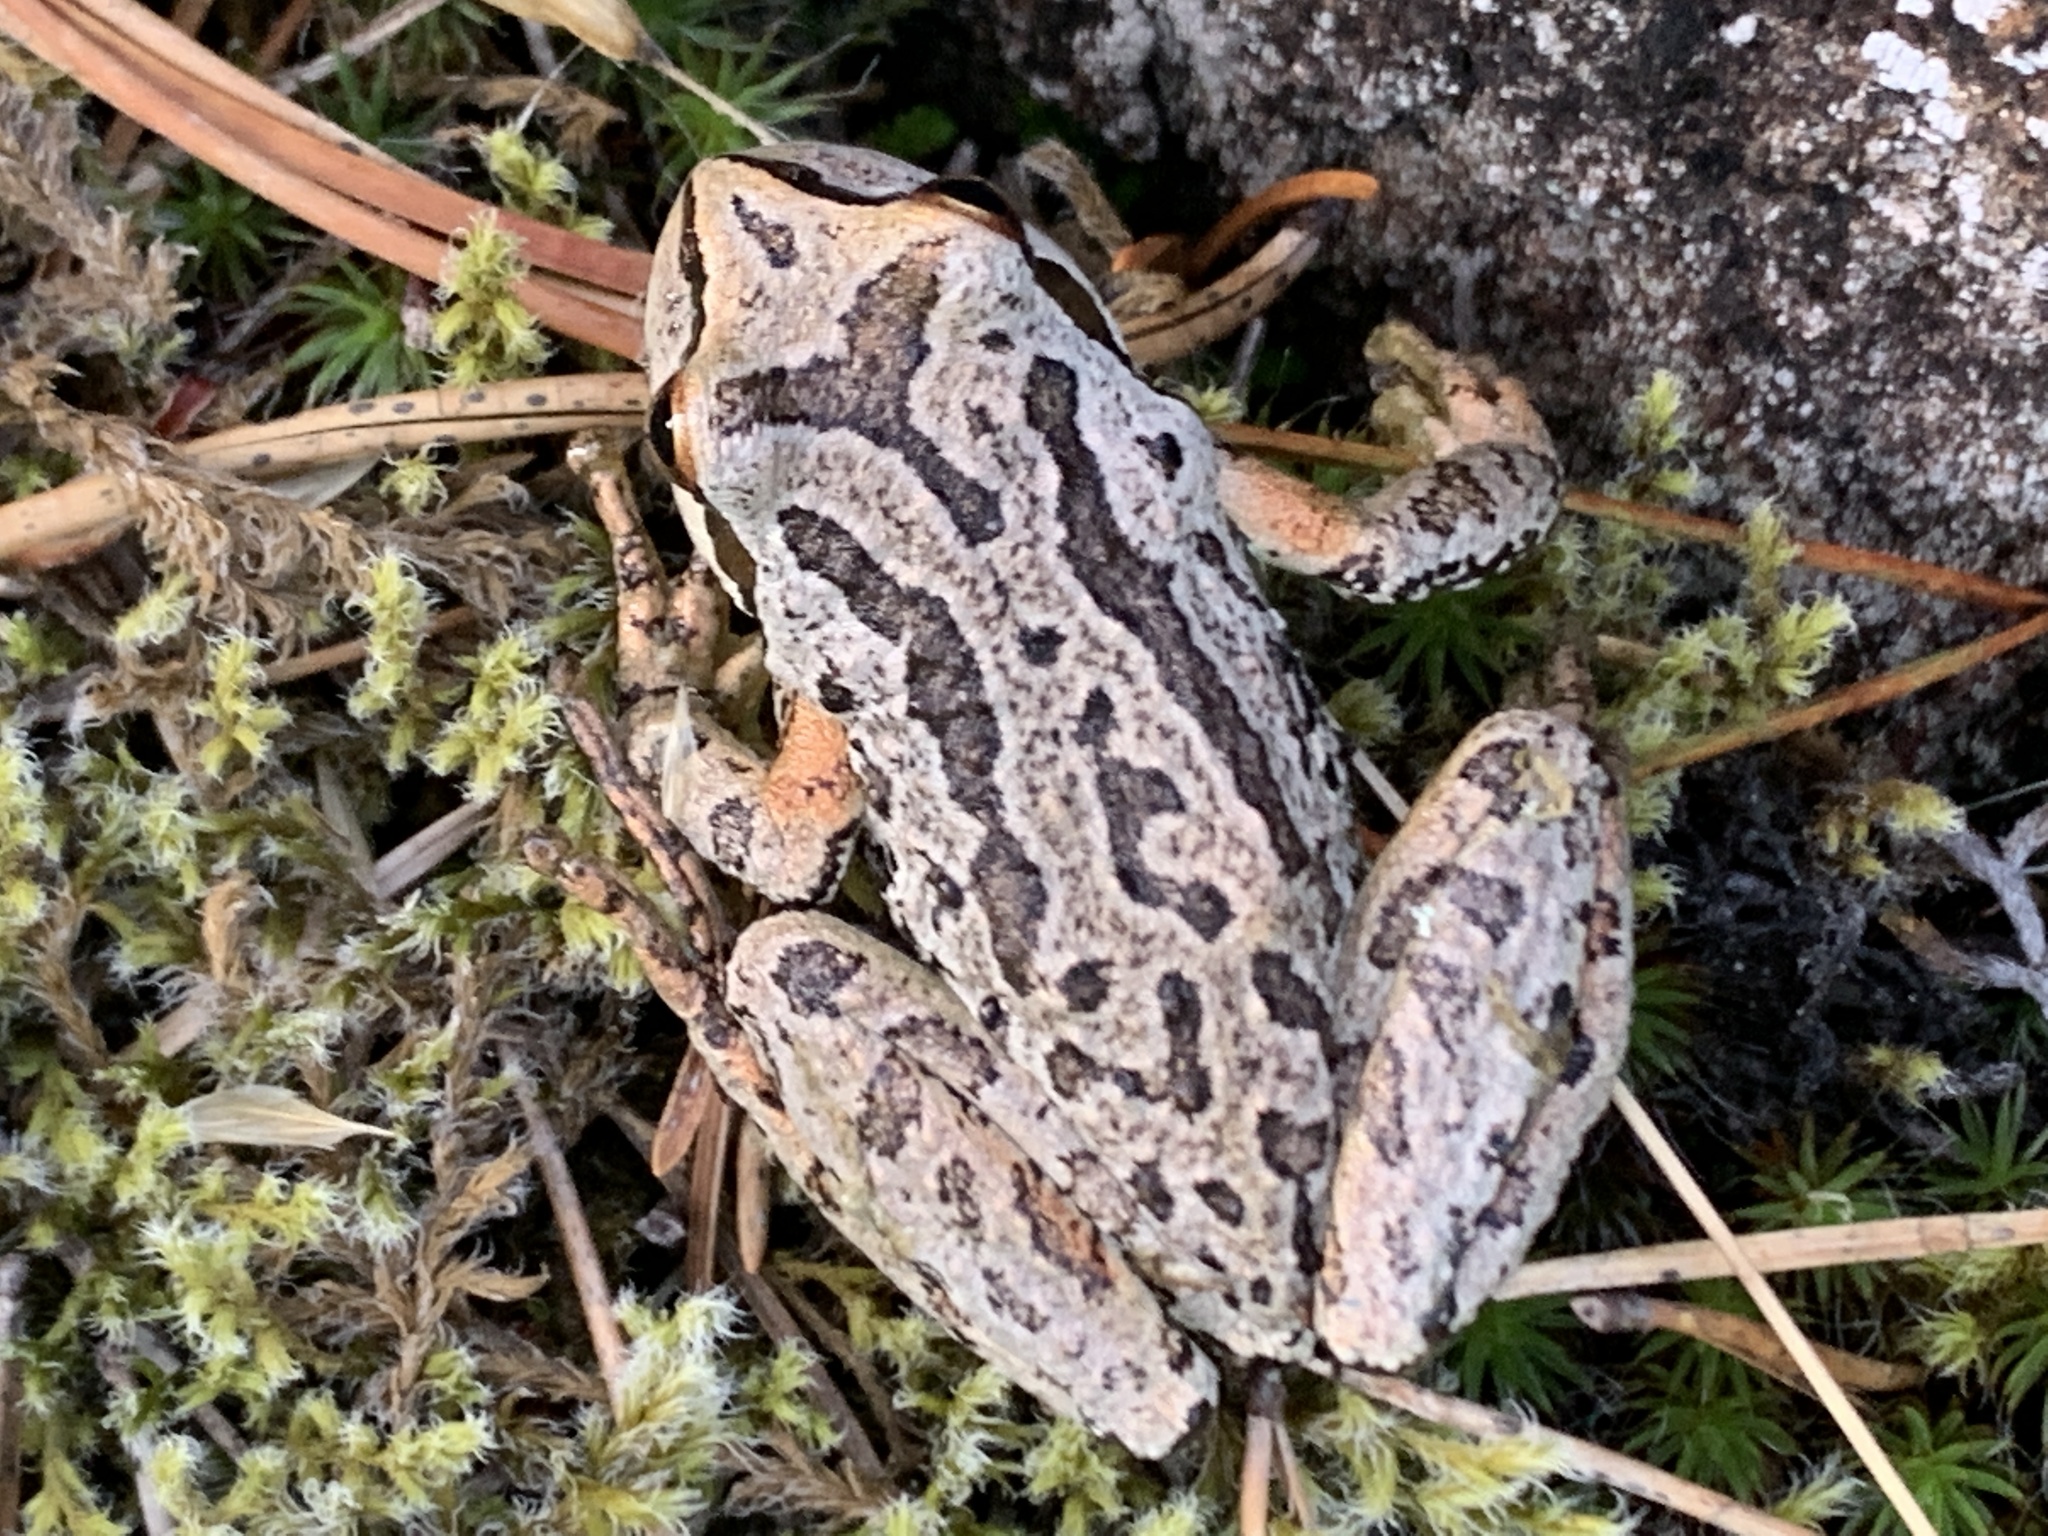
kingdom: Animalia
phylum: Chordata
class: Amphibia
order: Anura
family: Hylidae
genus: Pseudacris
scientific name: Pseudacris regilla
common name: Pacific chorus frog
